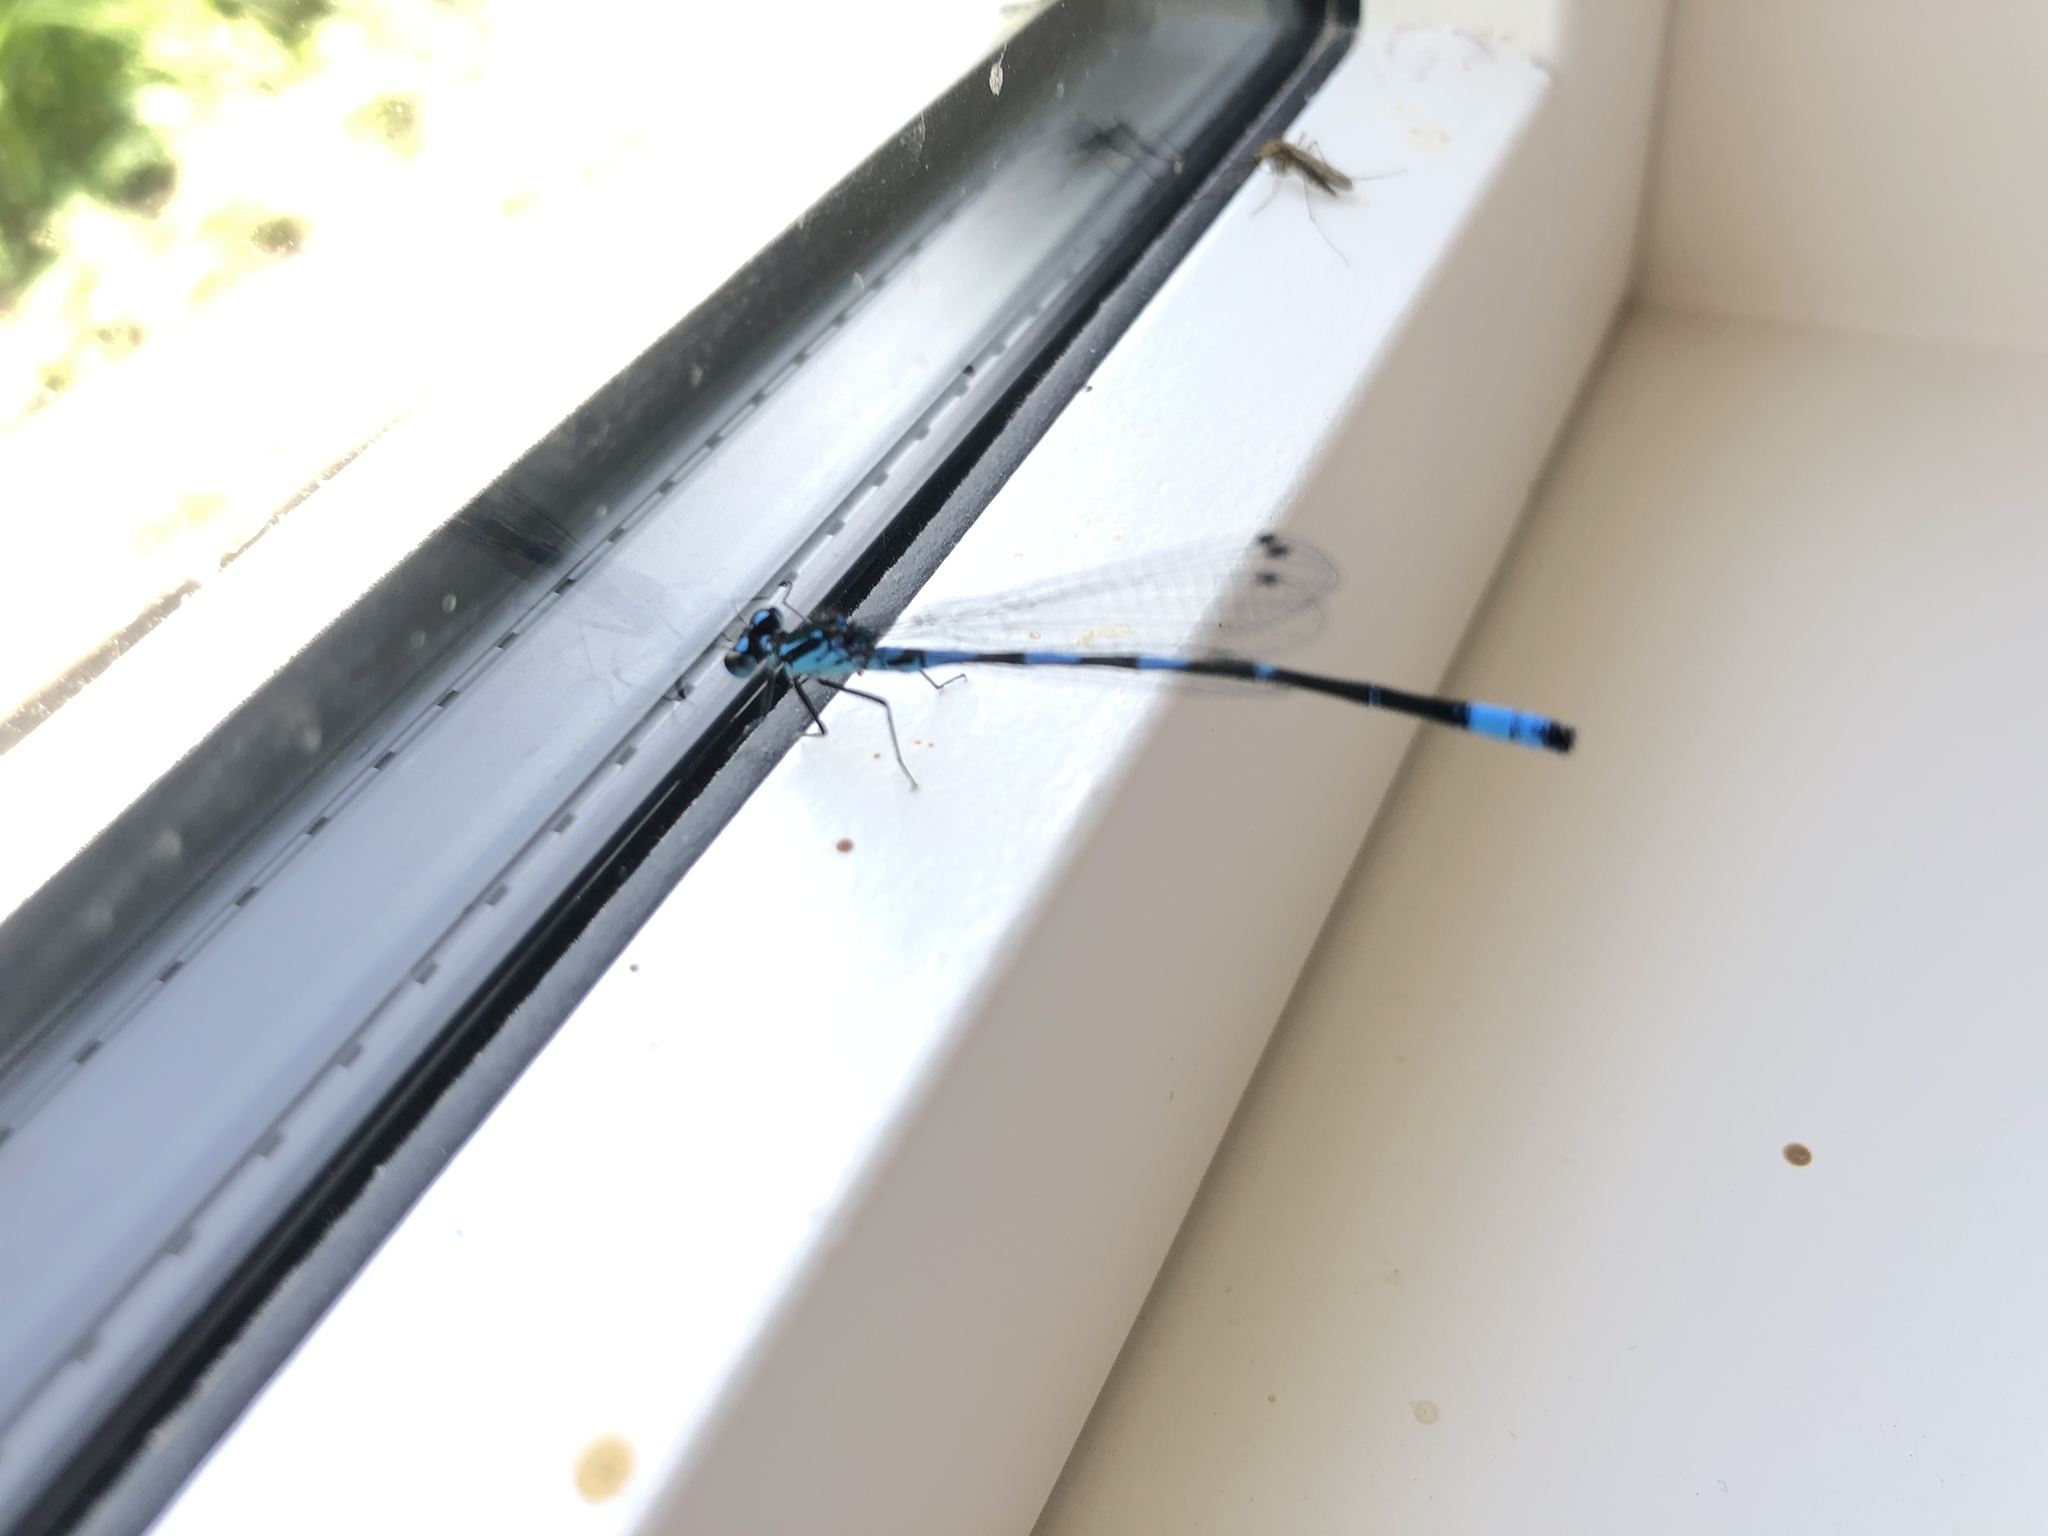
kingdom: Animalia
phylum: Arthropoda
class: Insecta
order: Odonata
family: Coenagrionidae
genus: Coenagrion
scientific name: Coenagrion pulchellum
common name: Variable bluet
